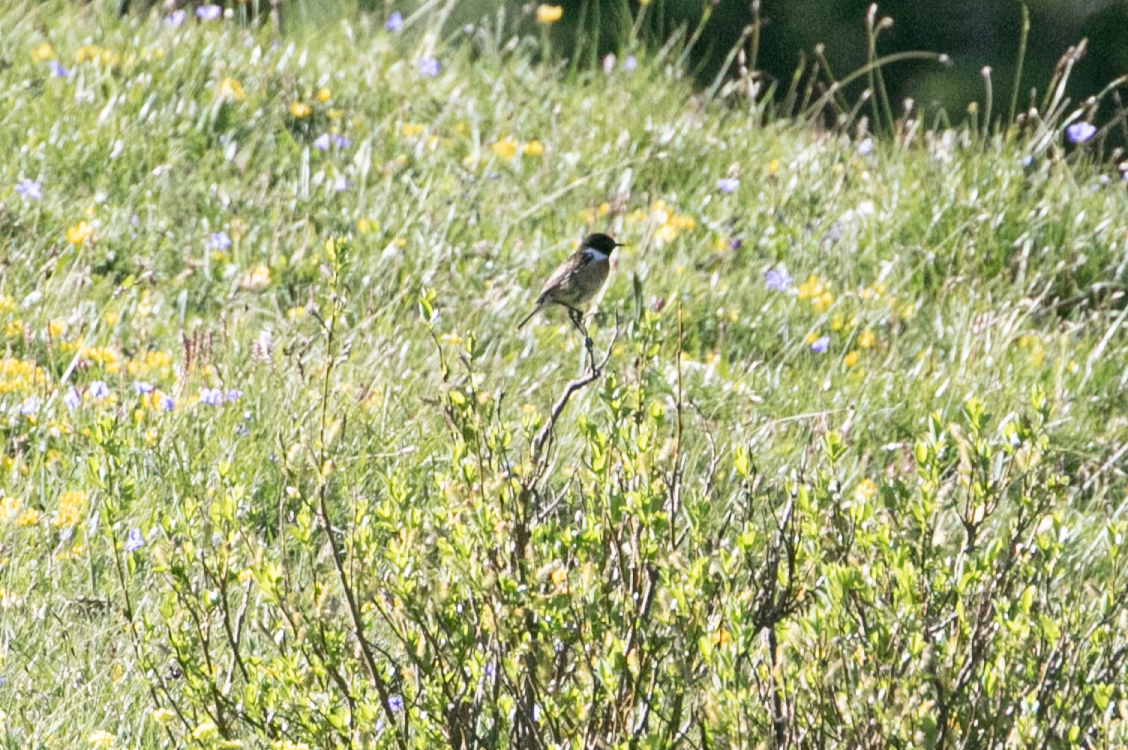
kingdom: Animalia
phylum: Chordata
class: Aves
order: Passeriformes
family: Muscicapidae
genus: Saxicola
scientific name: Saxicola rubicola
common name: European stonechat
